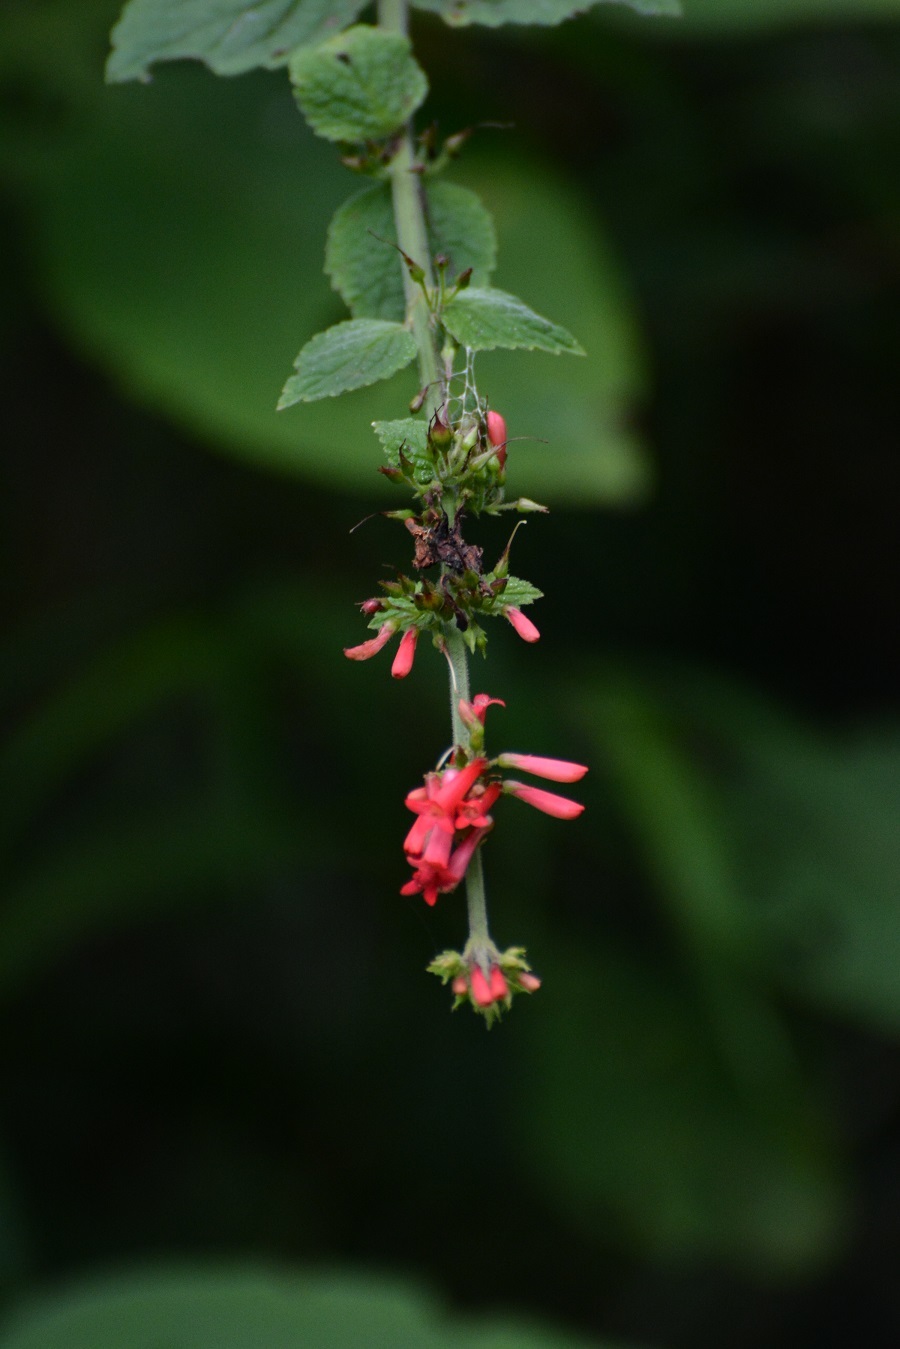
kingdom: Plantae
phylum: Tracheophyta
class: Magnoliopsida
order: Lamiales
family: Plantaginaceae
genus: Russelia
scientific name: Russelia verticillata
